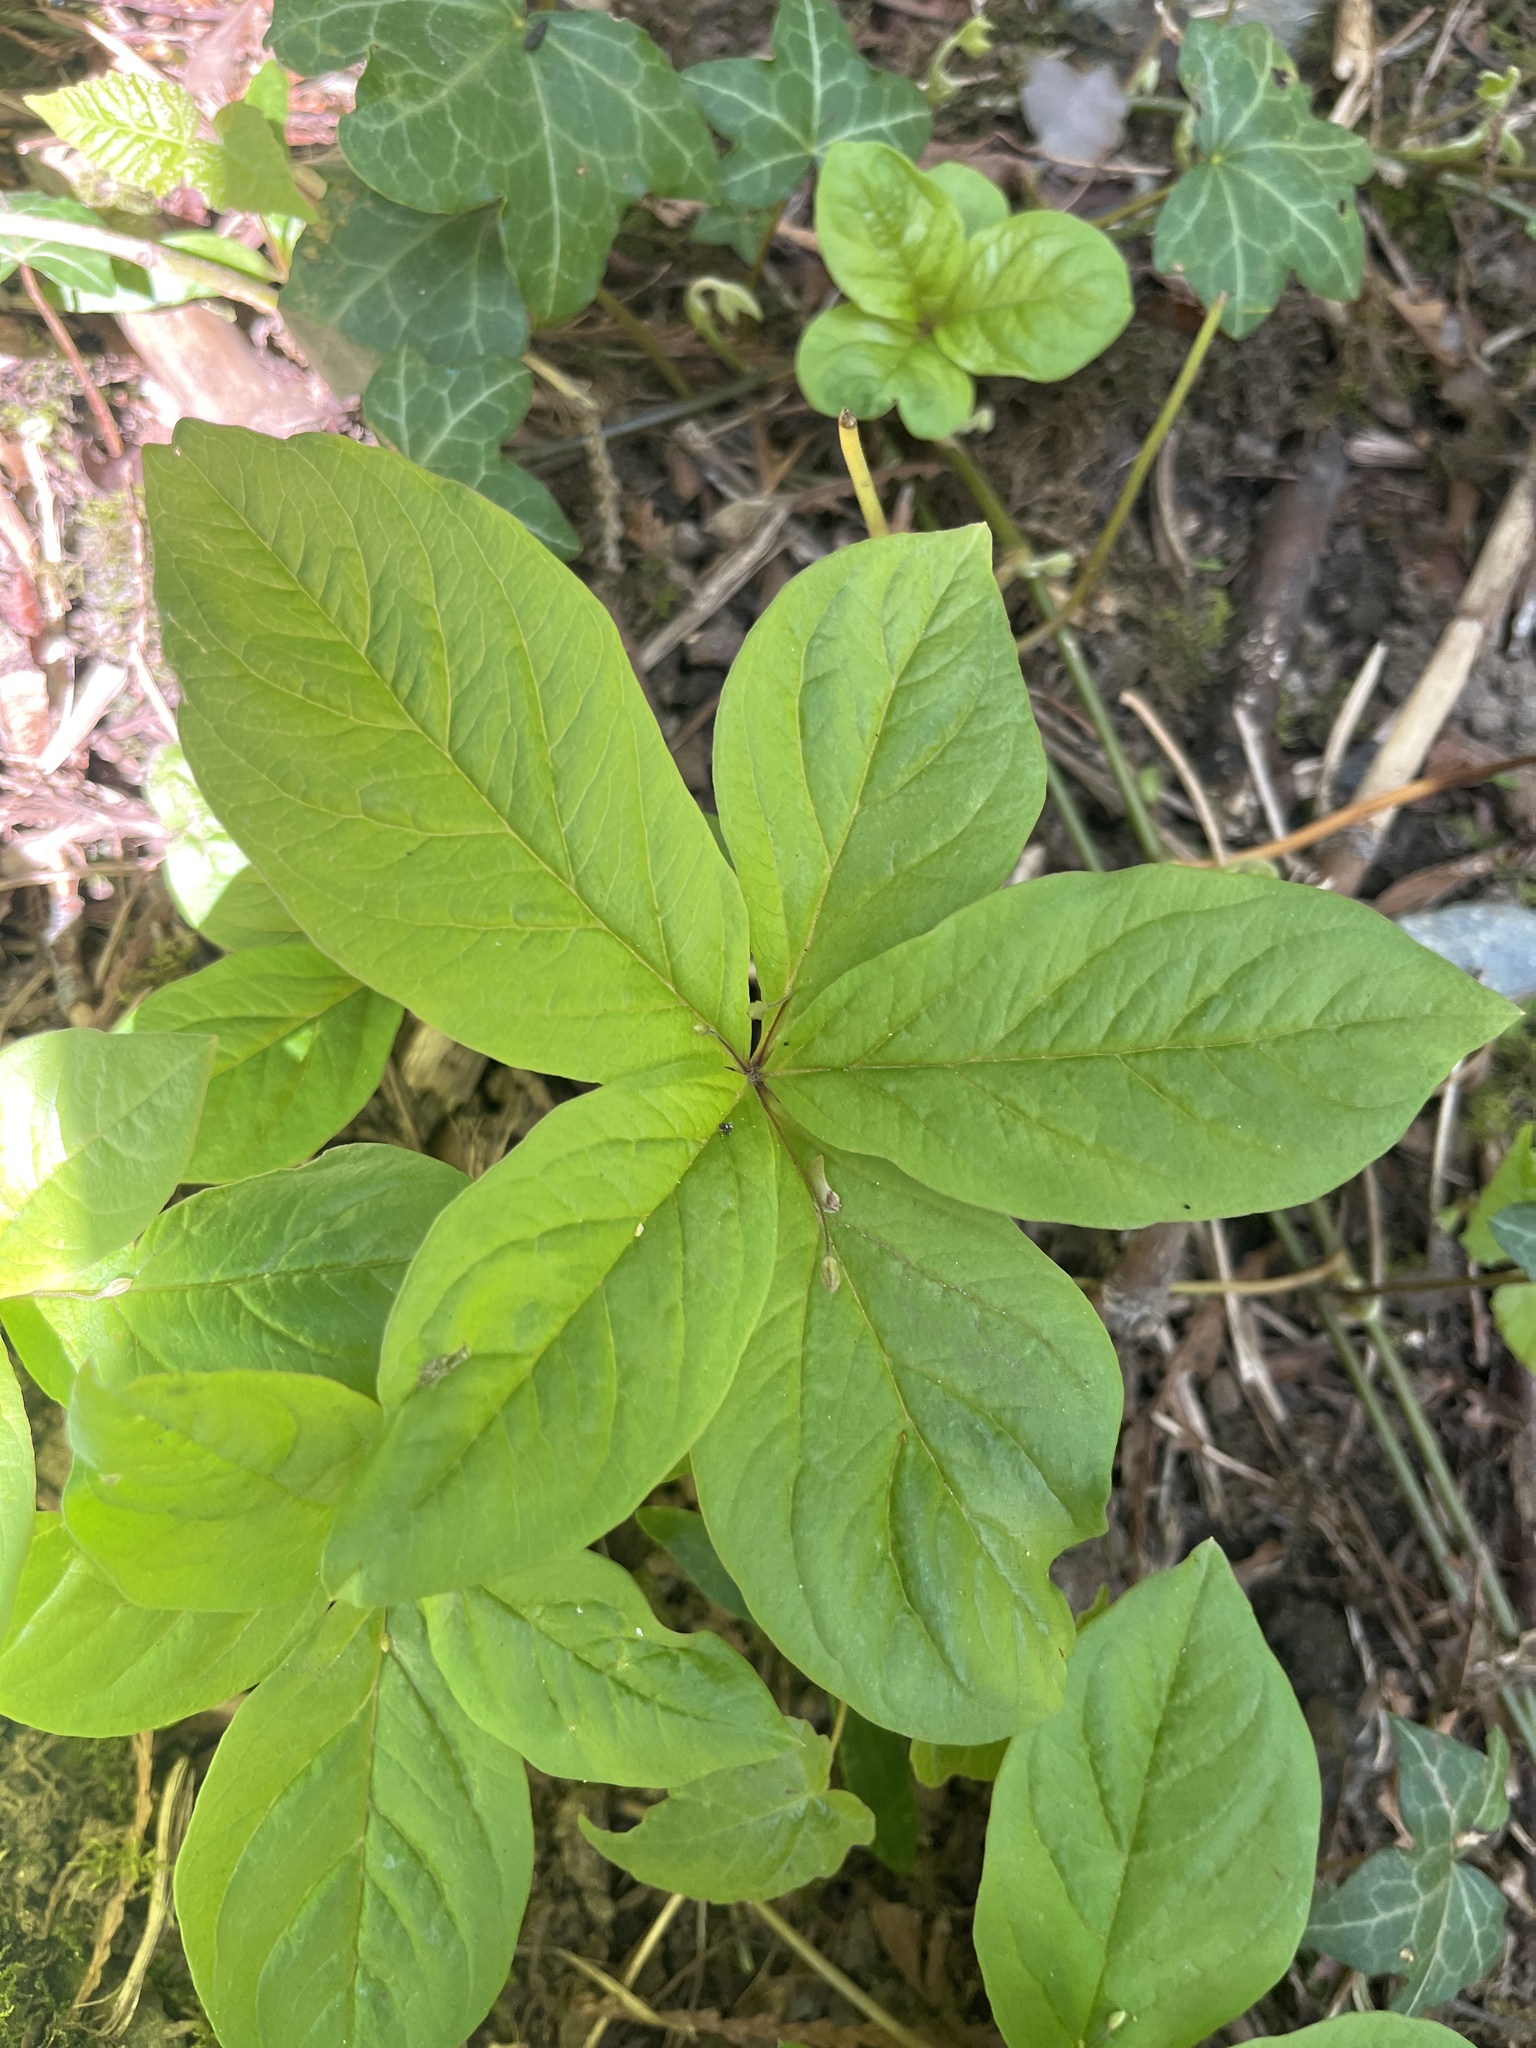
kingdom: Plantae
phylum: Tracheophyta
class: Magnoliopsida
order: Ericales
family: Primulaceae
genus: Lysimachia
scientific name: Lysimachia latifolia
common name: Pacific starflower
